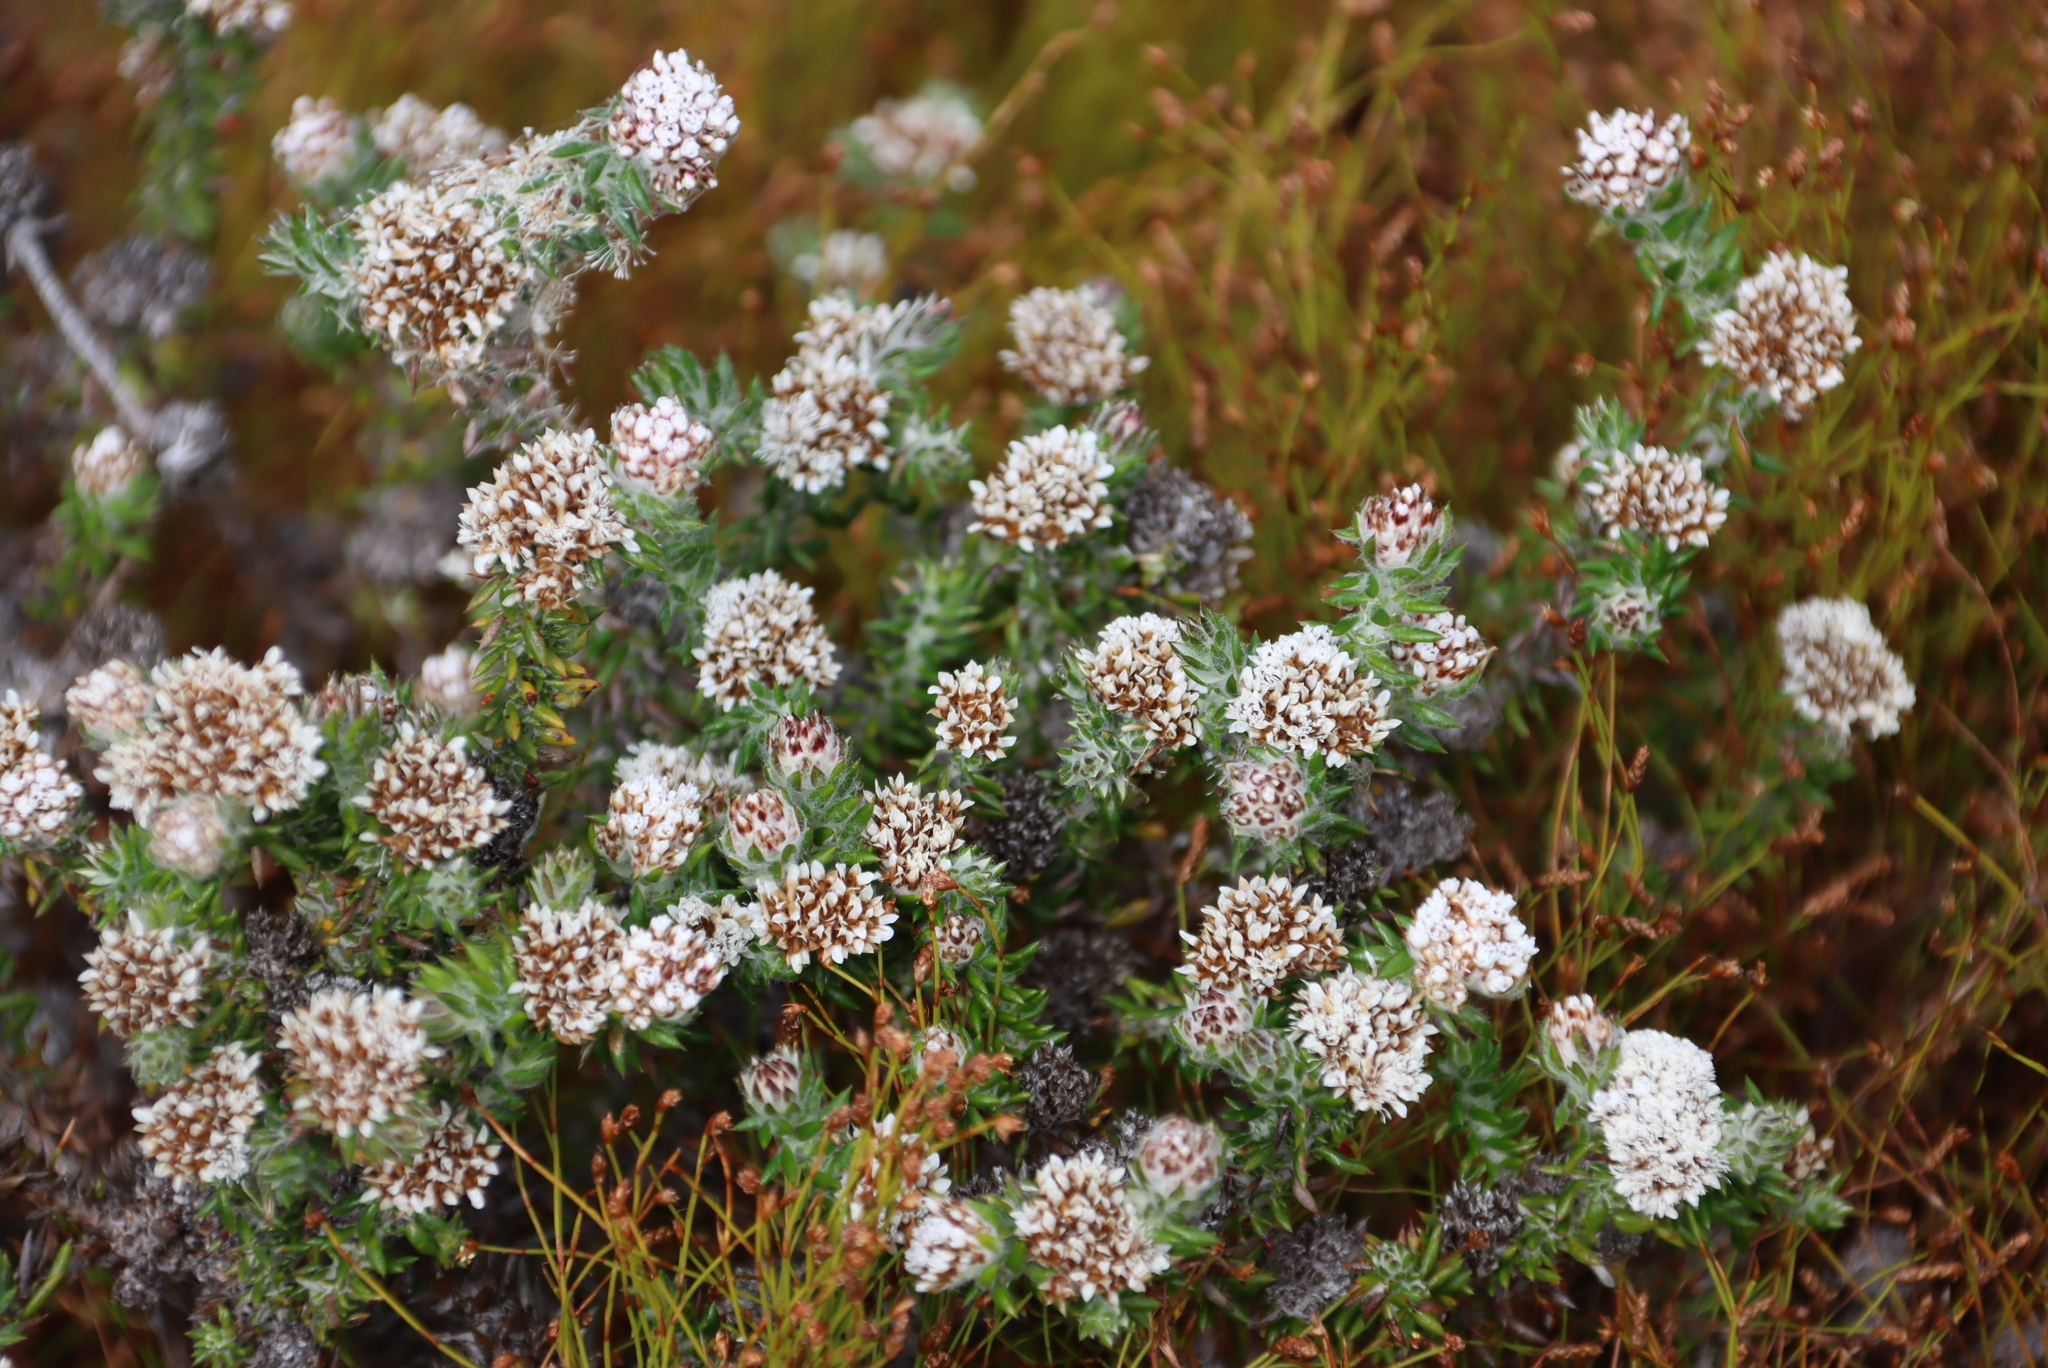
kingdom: Plantae
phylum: Tracheophyta
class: Magnoliopsida
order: Asterales
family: Asteraceae
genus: Metalasia
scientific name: Metalasia densa
